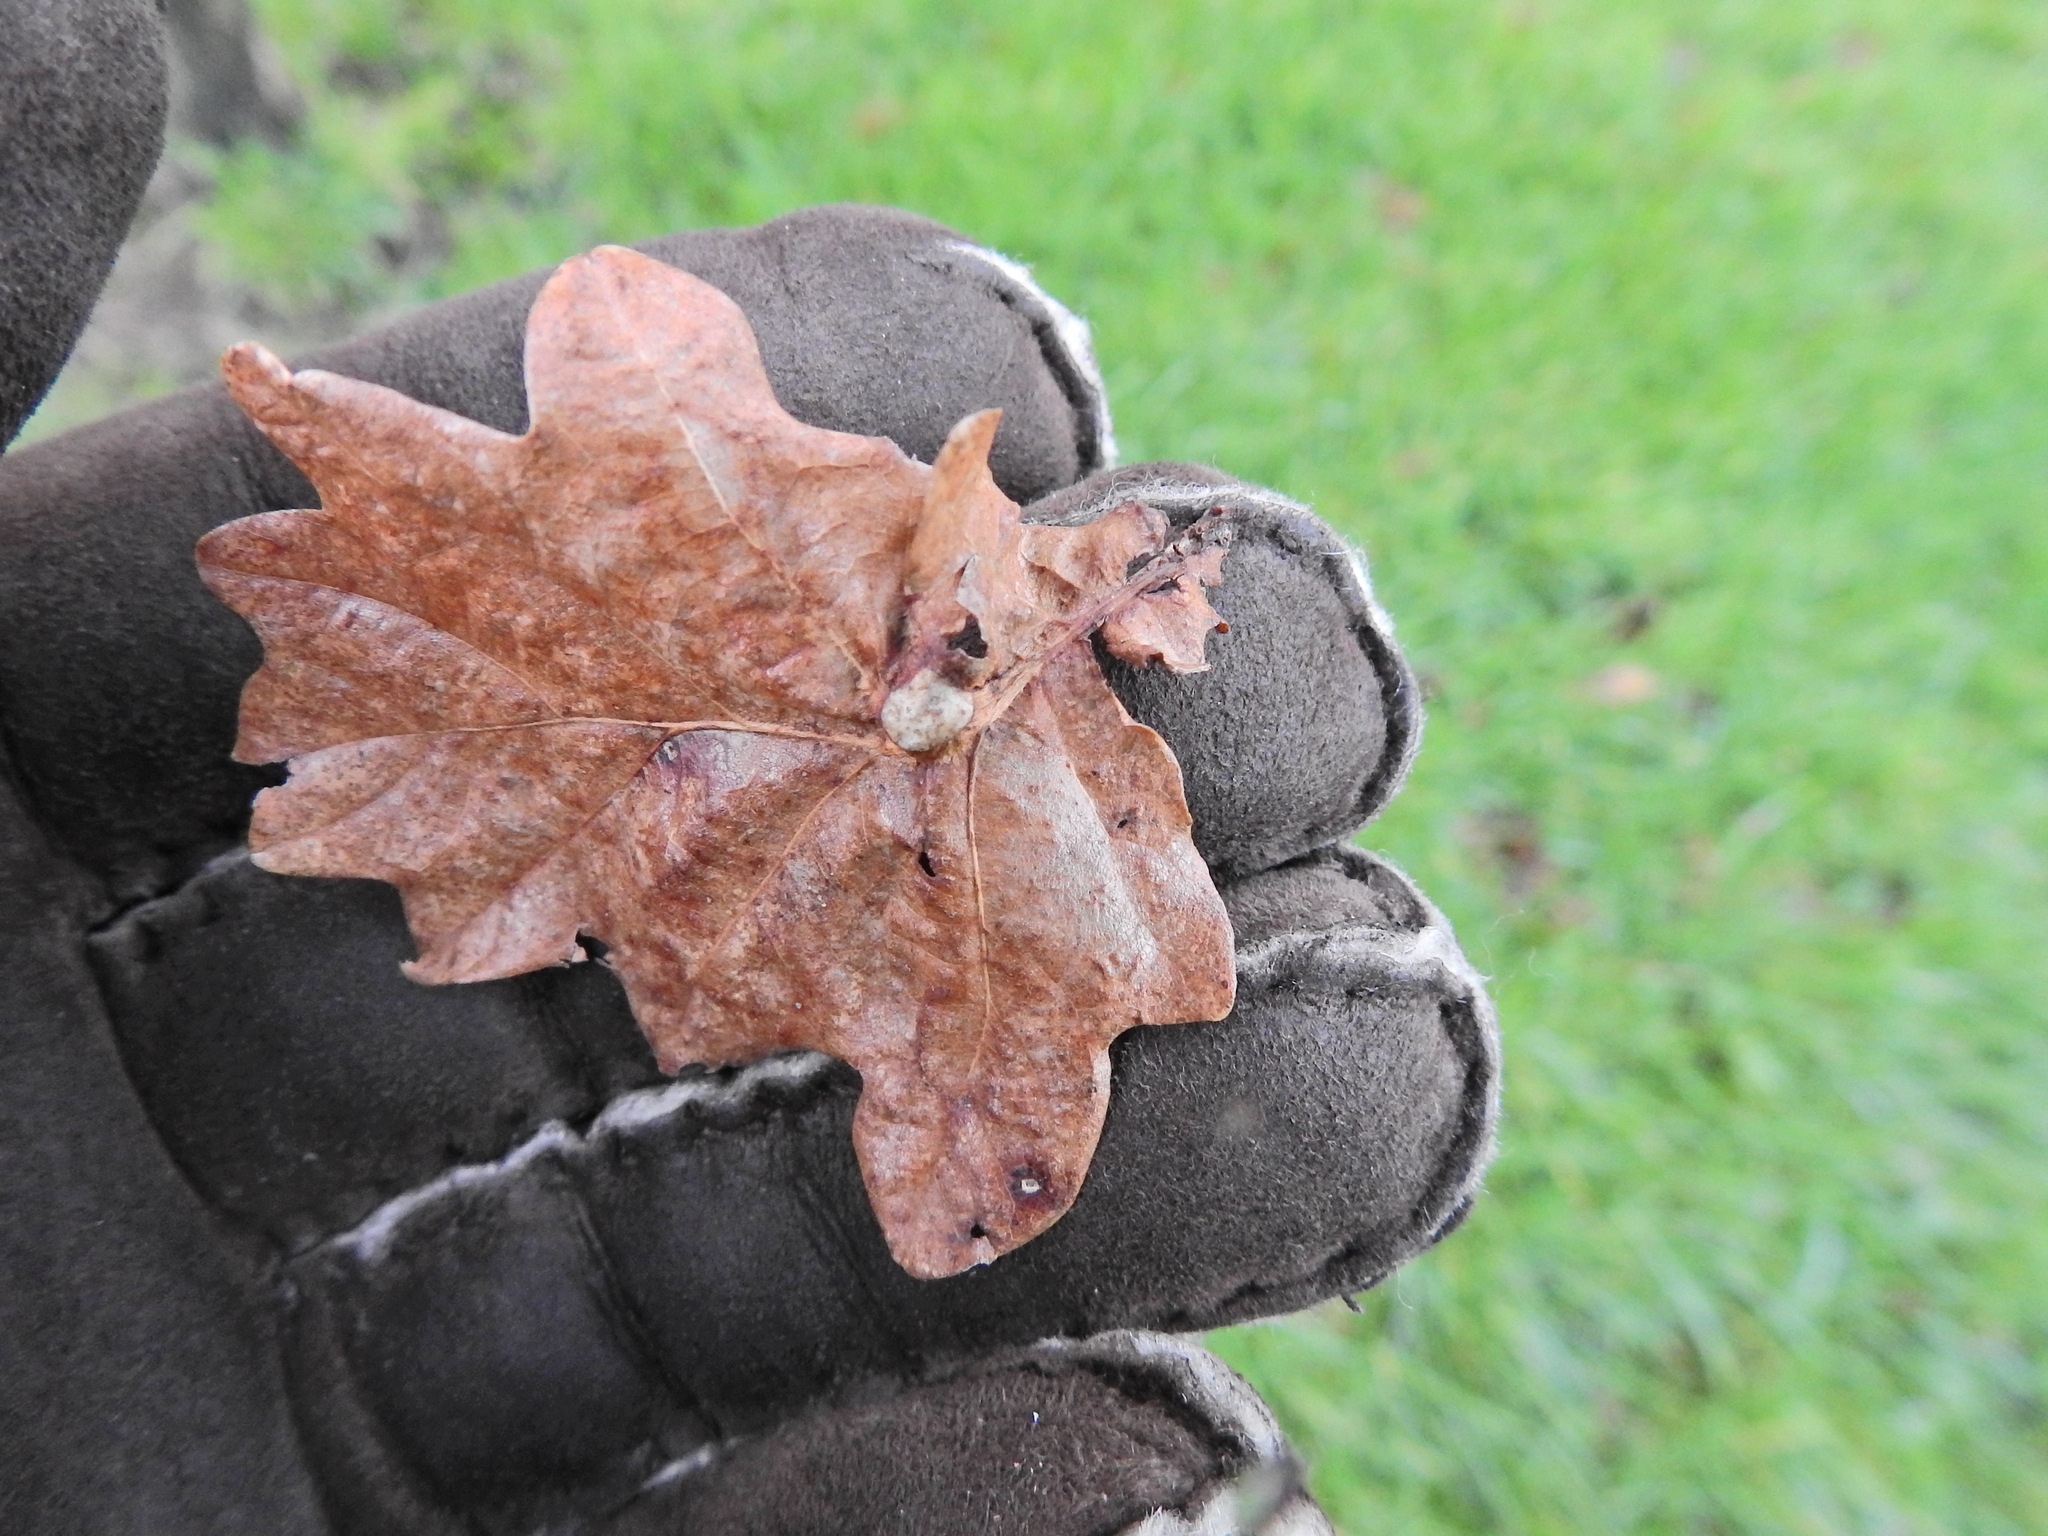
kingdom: Animalia
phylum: Arthropoda
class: Insecta
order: Hymenoptera
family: Cynipidae
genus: Andricus
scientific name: Andricus curvator
